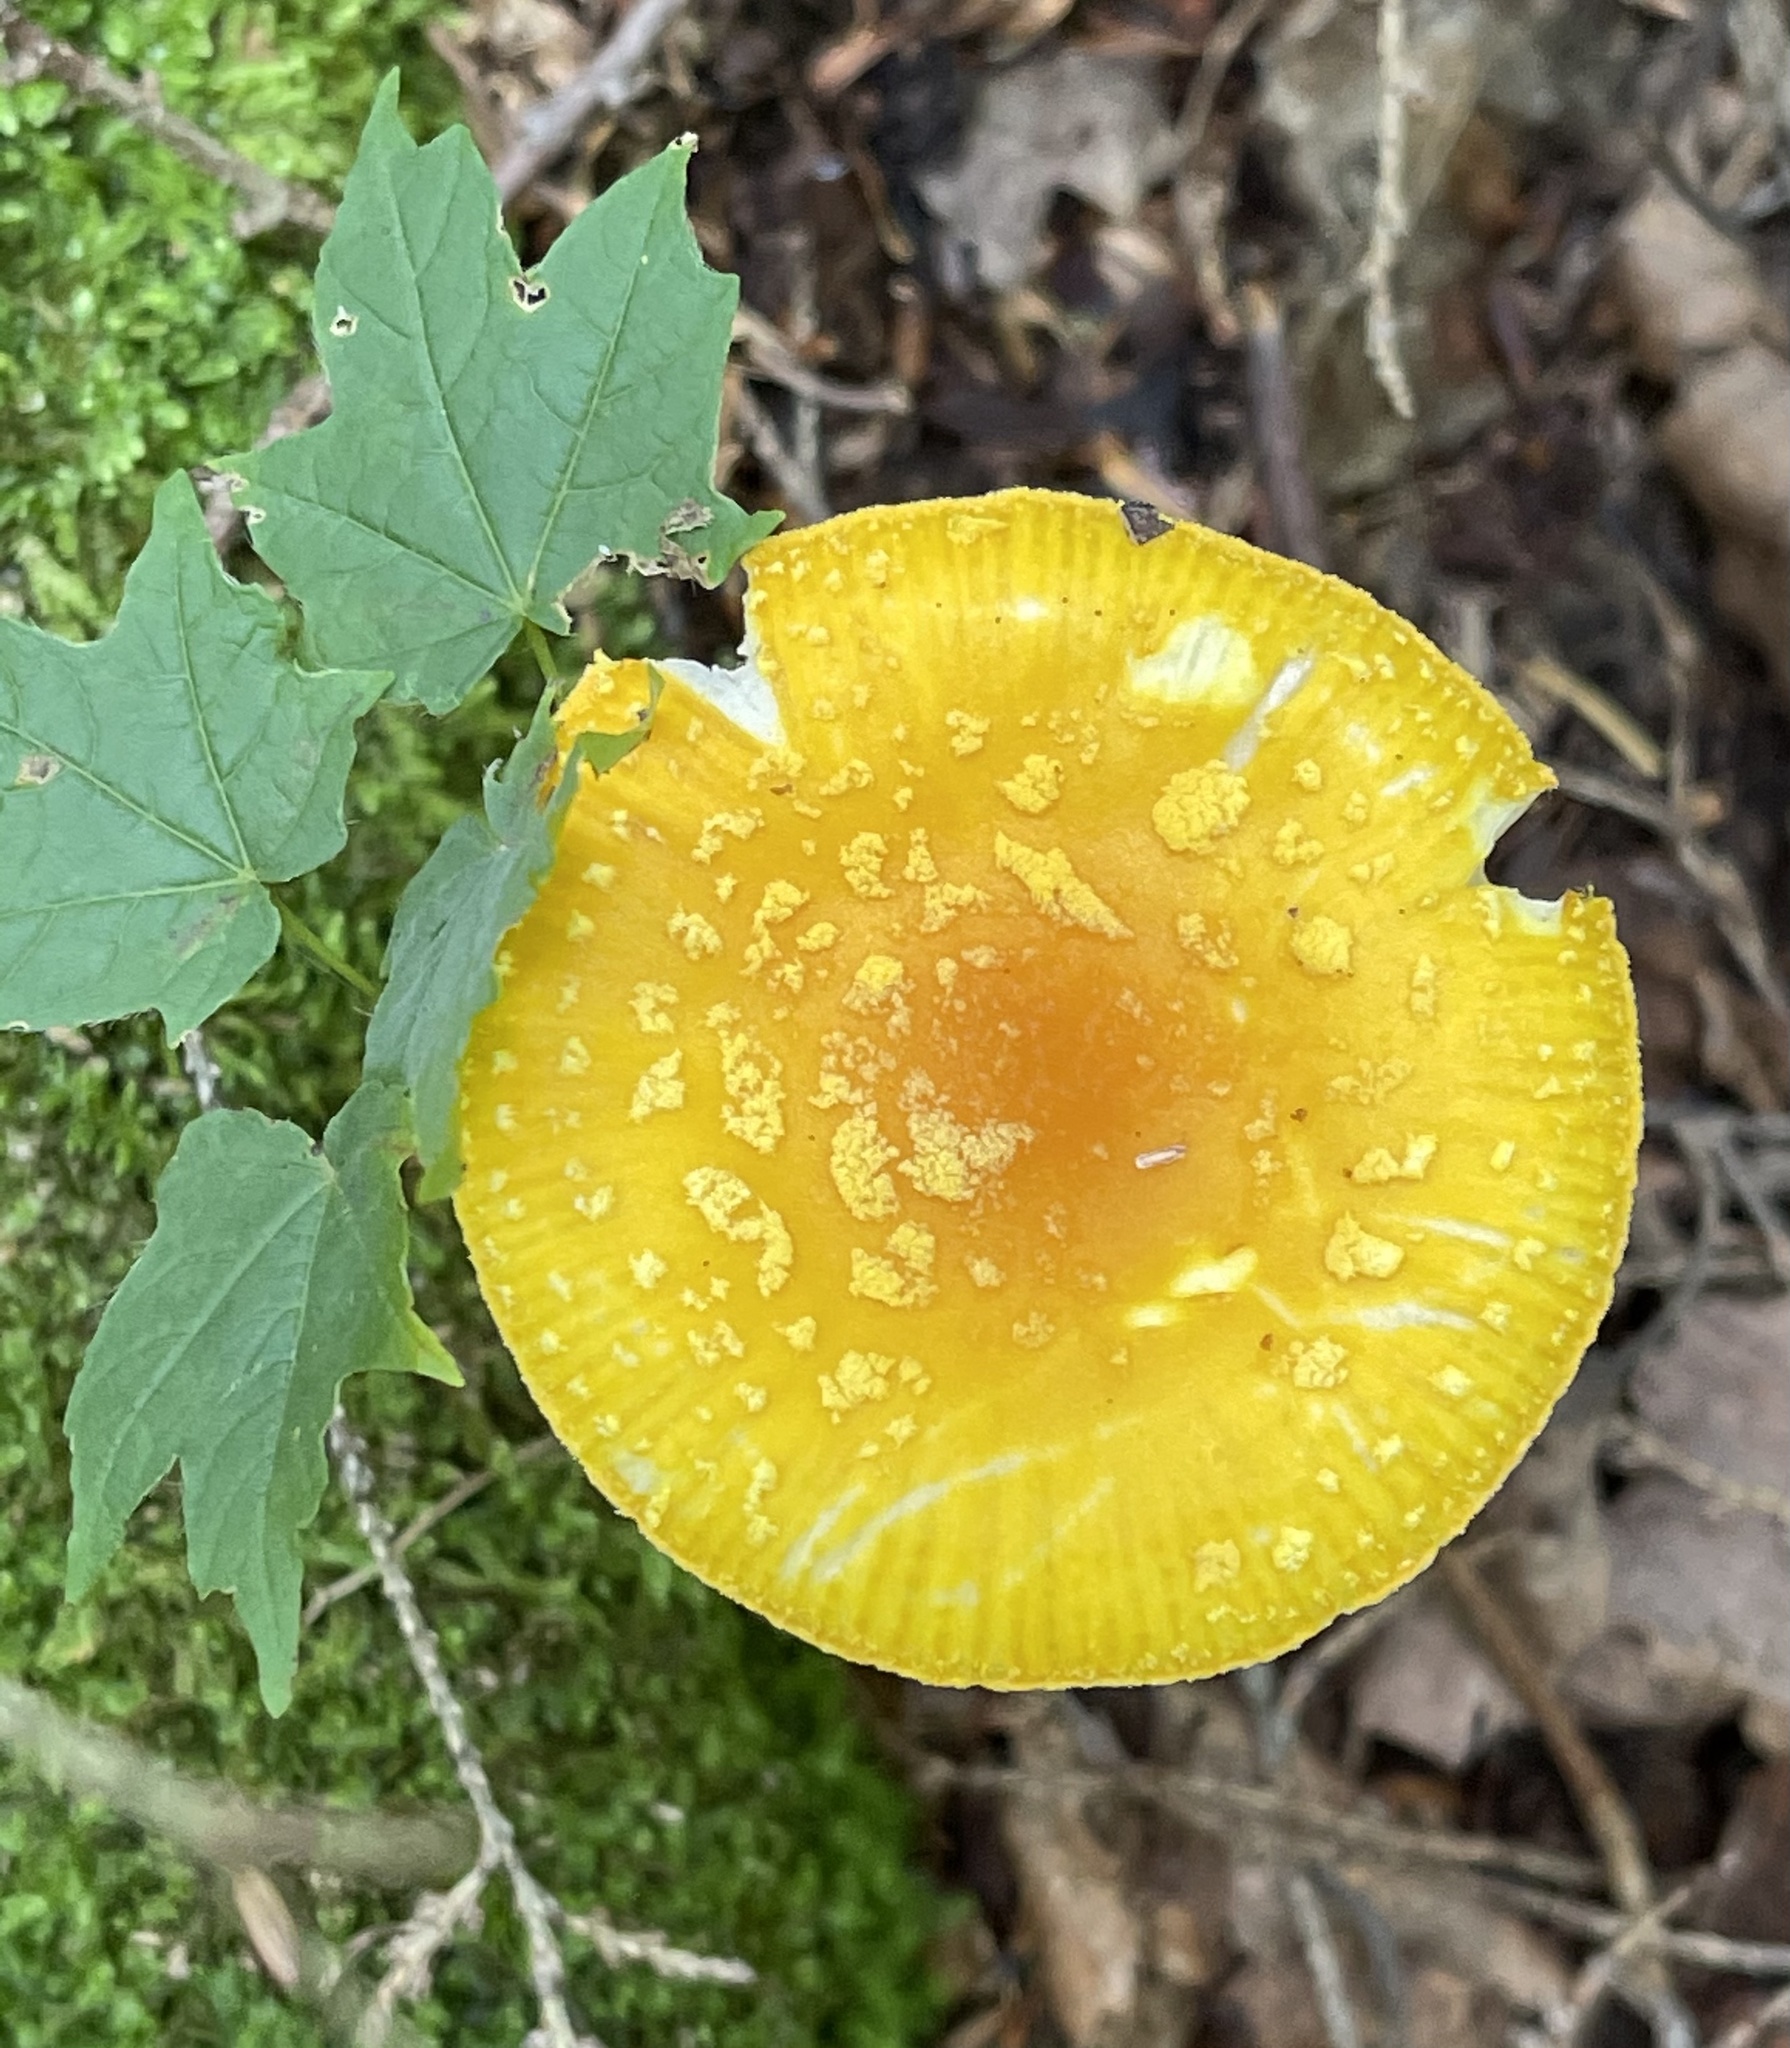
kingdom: Fungi
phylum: Basidiomycota
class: Agaricomycetes
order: Agaricales
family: Amanitaceae
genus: Amanita
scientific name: Amanita frostiana
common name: Frost's amanita
